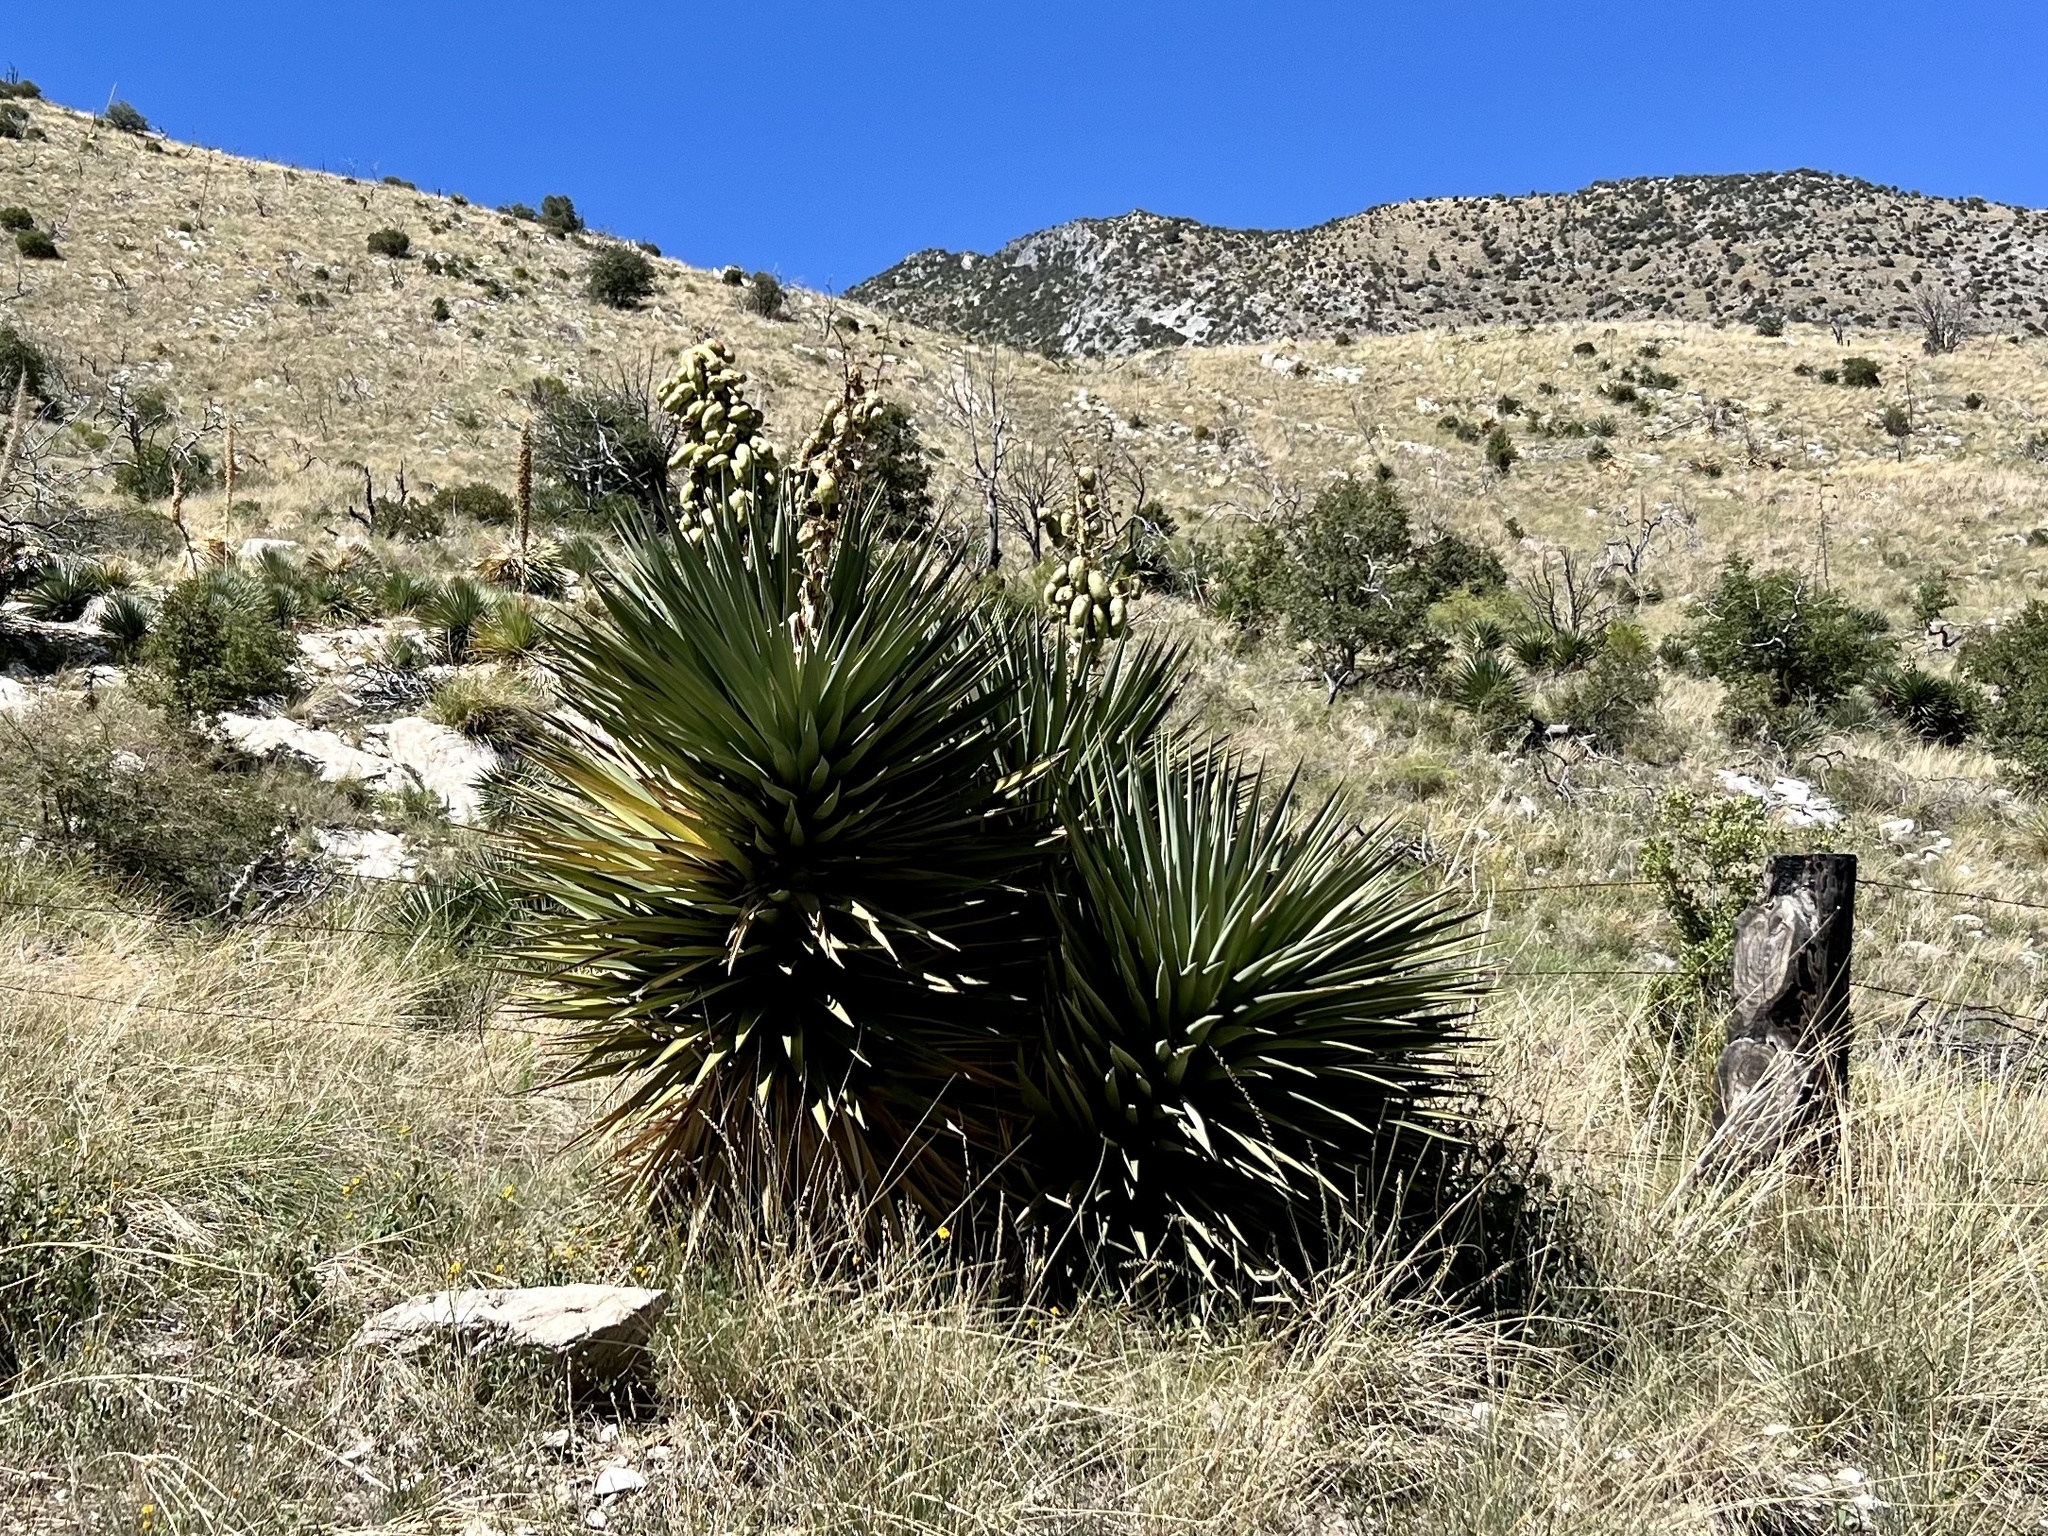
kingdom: Plantae
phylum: Tracheophyta
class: Liliopsida
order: Asparagales
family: Asparagaceae
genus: Yucca
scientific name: Yucca madrensis
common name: Hoary yucca
